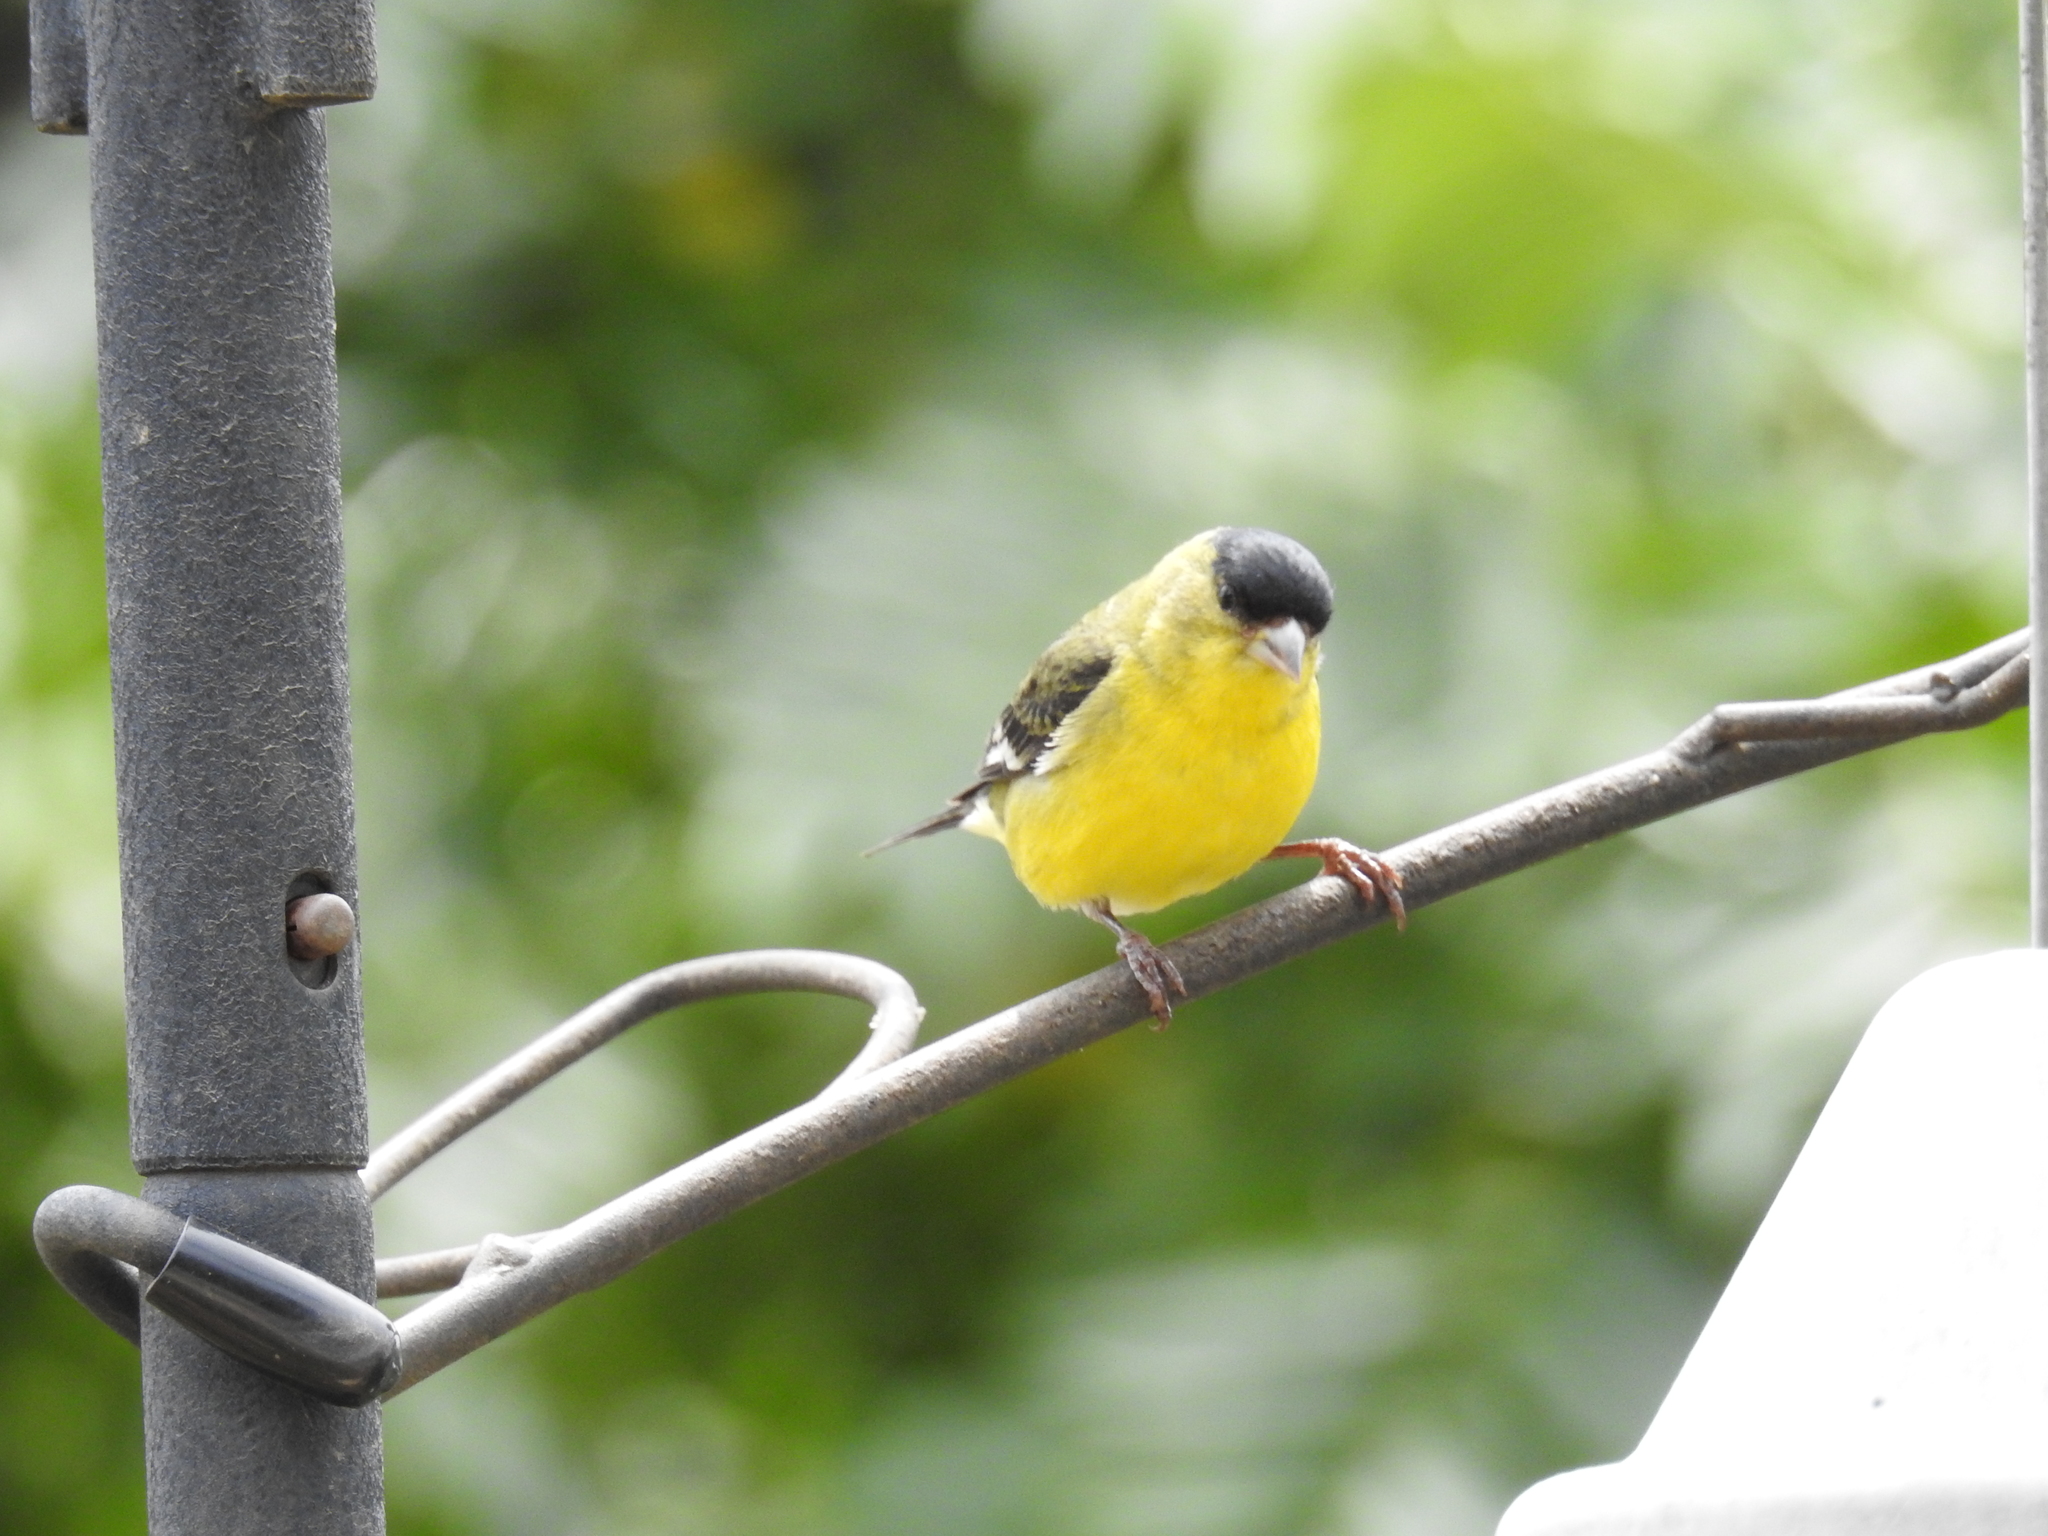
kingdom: Animalia
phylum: Chordata
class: Aves
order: Passeriformes
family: Fringillidae
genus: Spinus
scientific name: Spinus psaltria
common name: Lesser goldfinch
